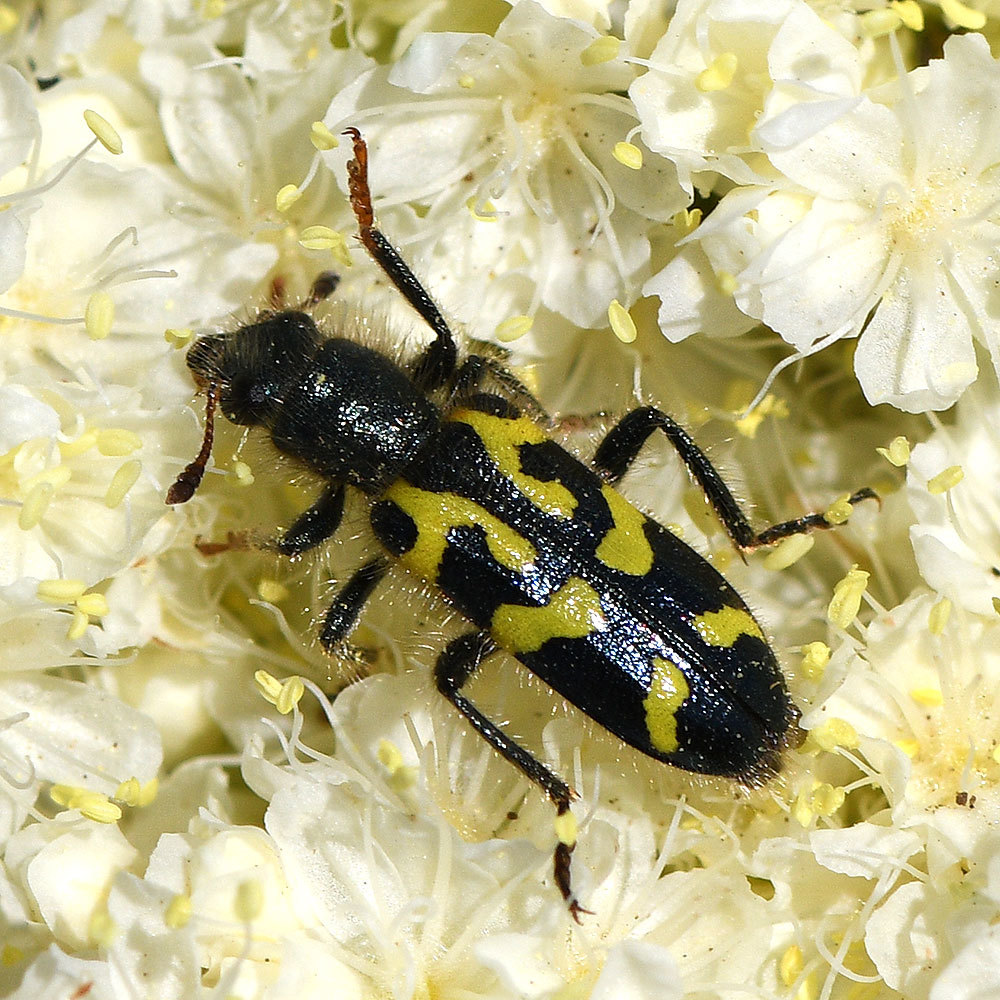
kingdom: Animalia
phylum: Arthropoda
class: Insecta
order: Coleoptera
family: Cleridae
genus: Trichodes
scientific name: Trichodes ornatus
